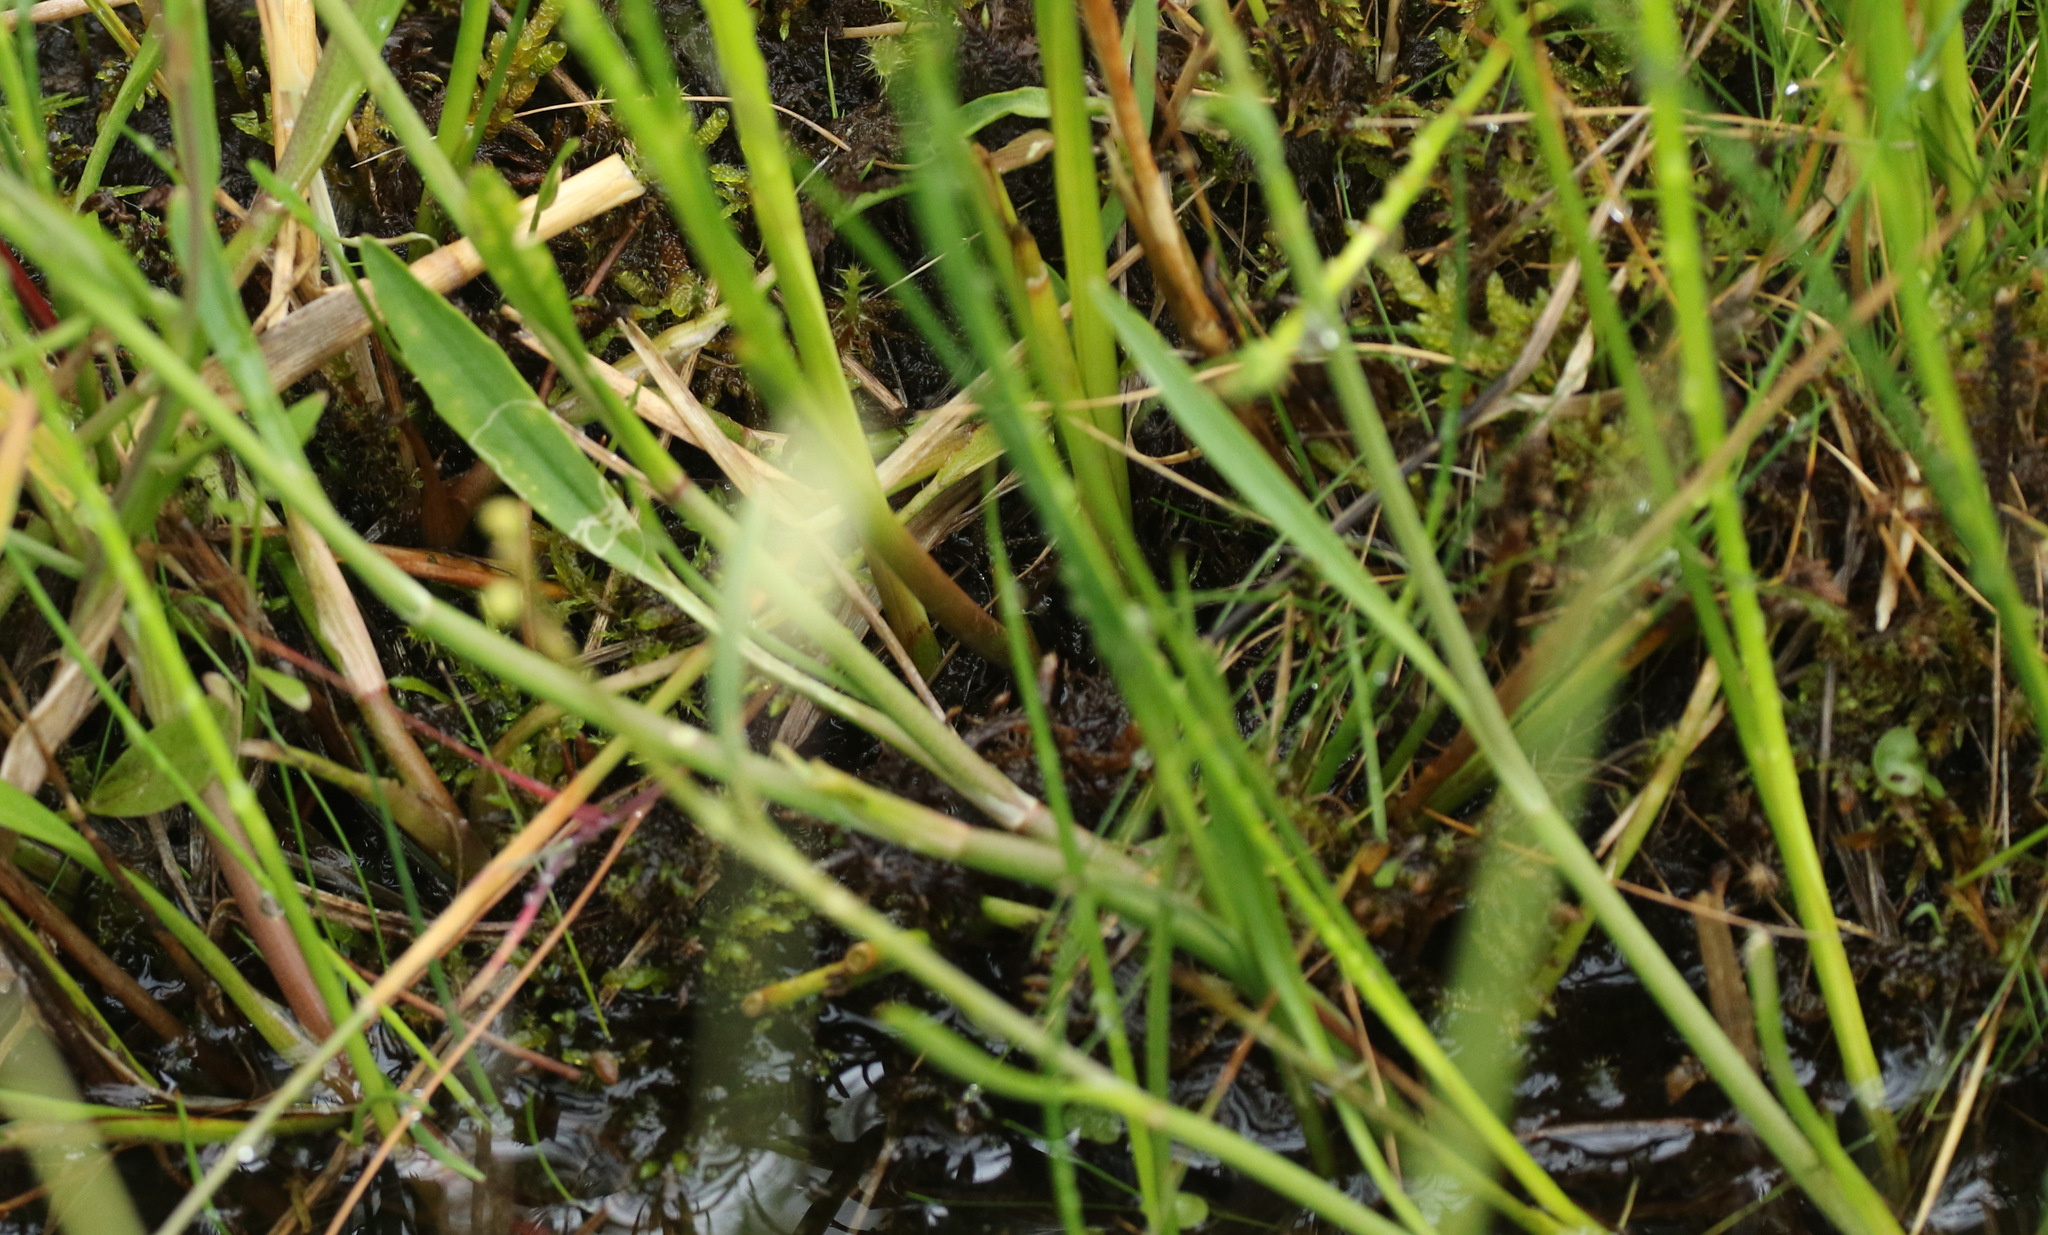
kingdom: Plantae
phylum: Tracheophyta
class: Magnoliopsida
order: Ranunculales
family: Ranunculaceae
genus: Ranunculus
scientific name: Ranunculus flammula
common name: Lesser spearwort
